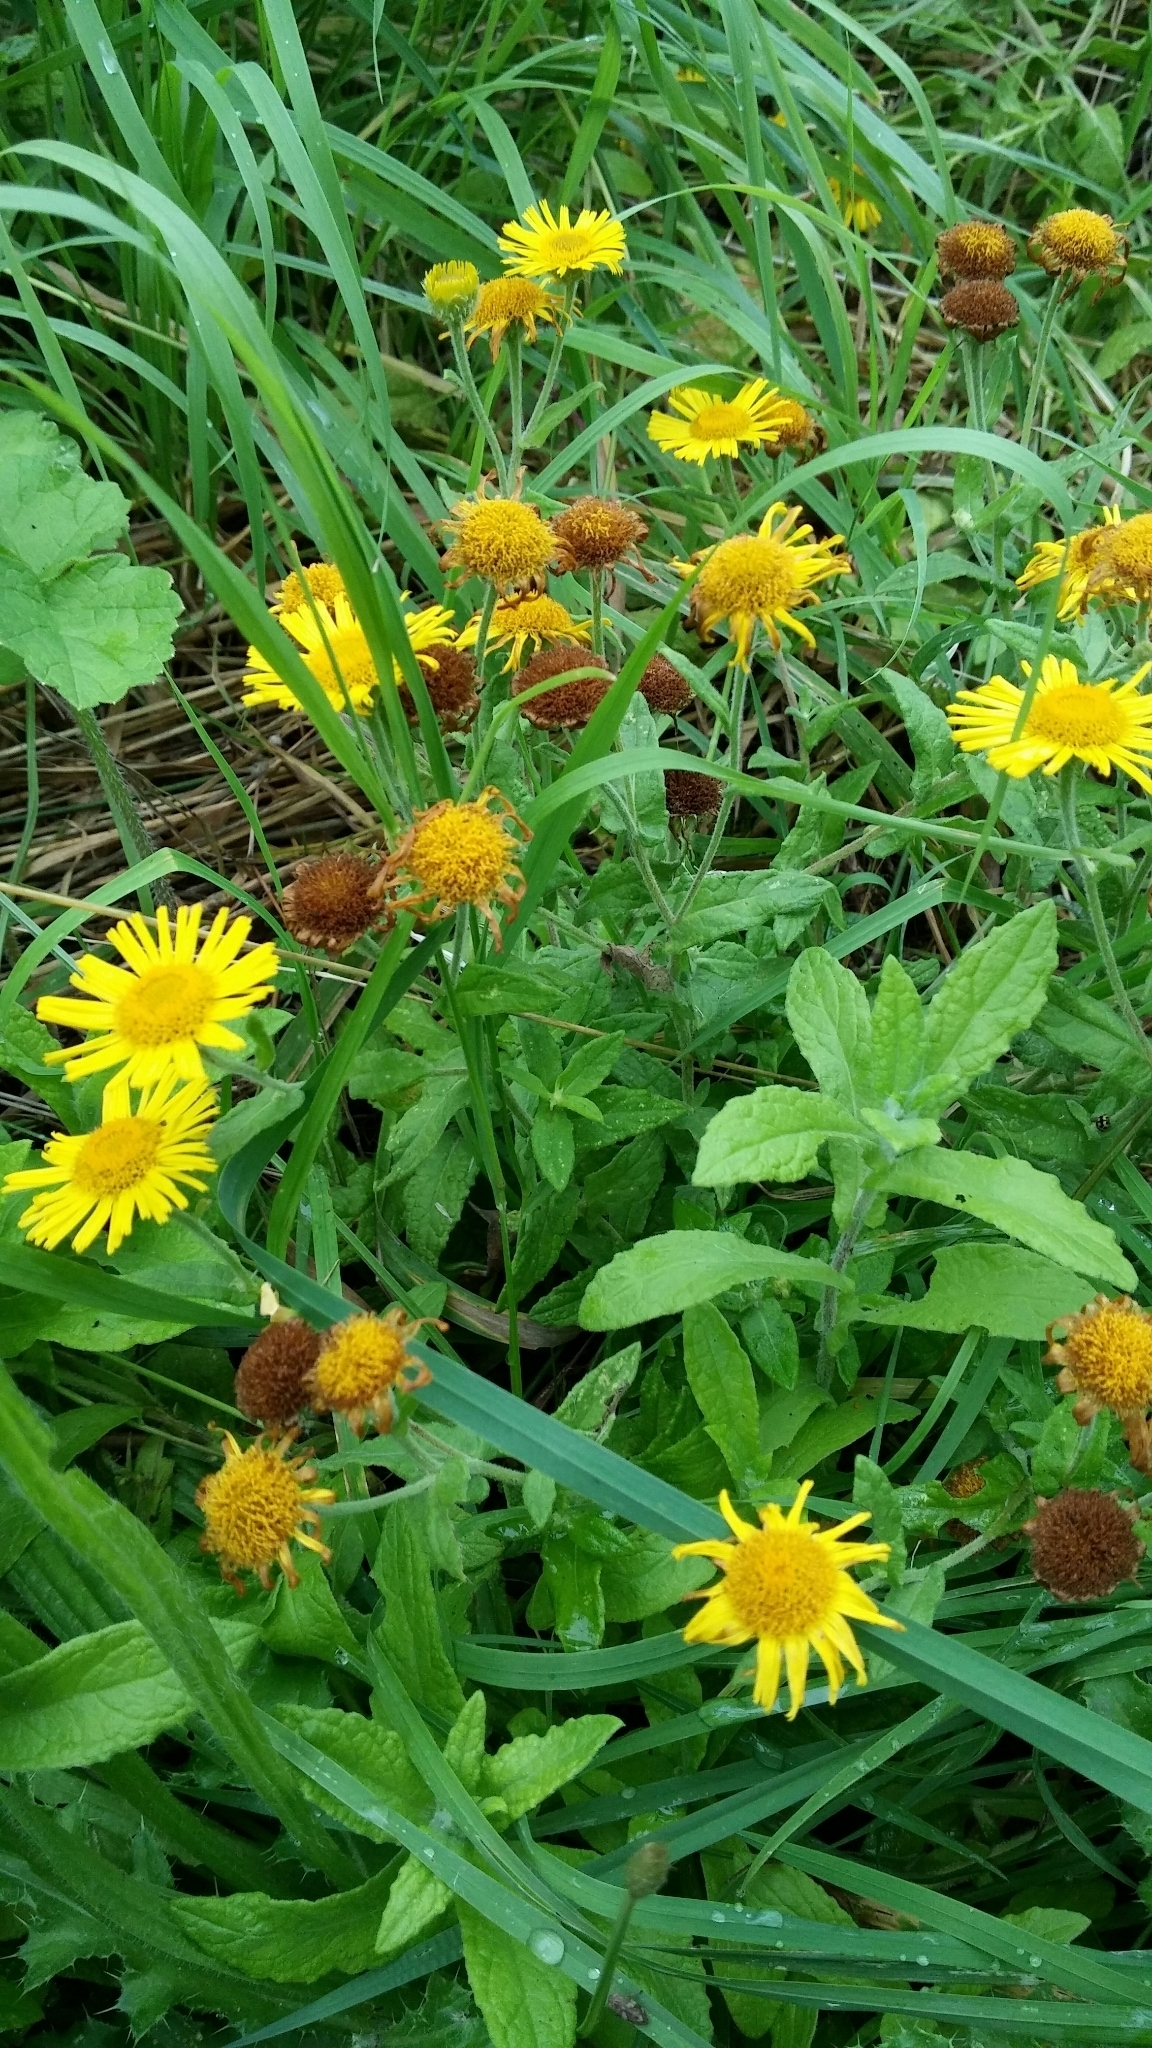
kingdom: Plantae
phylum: Tracheophyta
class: Magnoliopsida
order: Asterales
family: Asteraceae
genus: Pulicaria
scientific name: Pulicaria dysenterica
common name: Common fleabane
